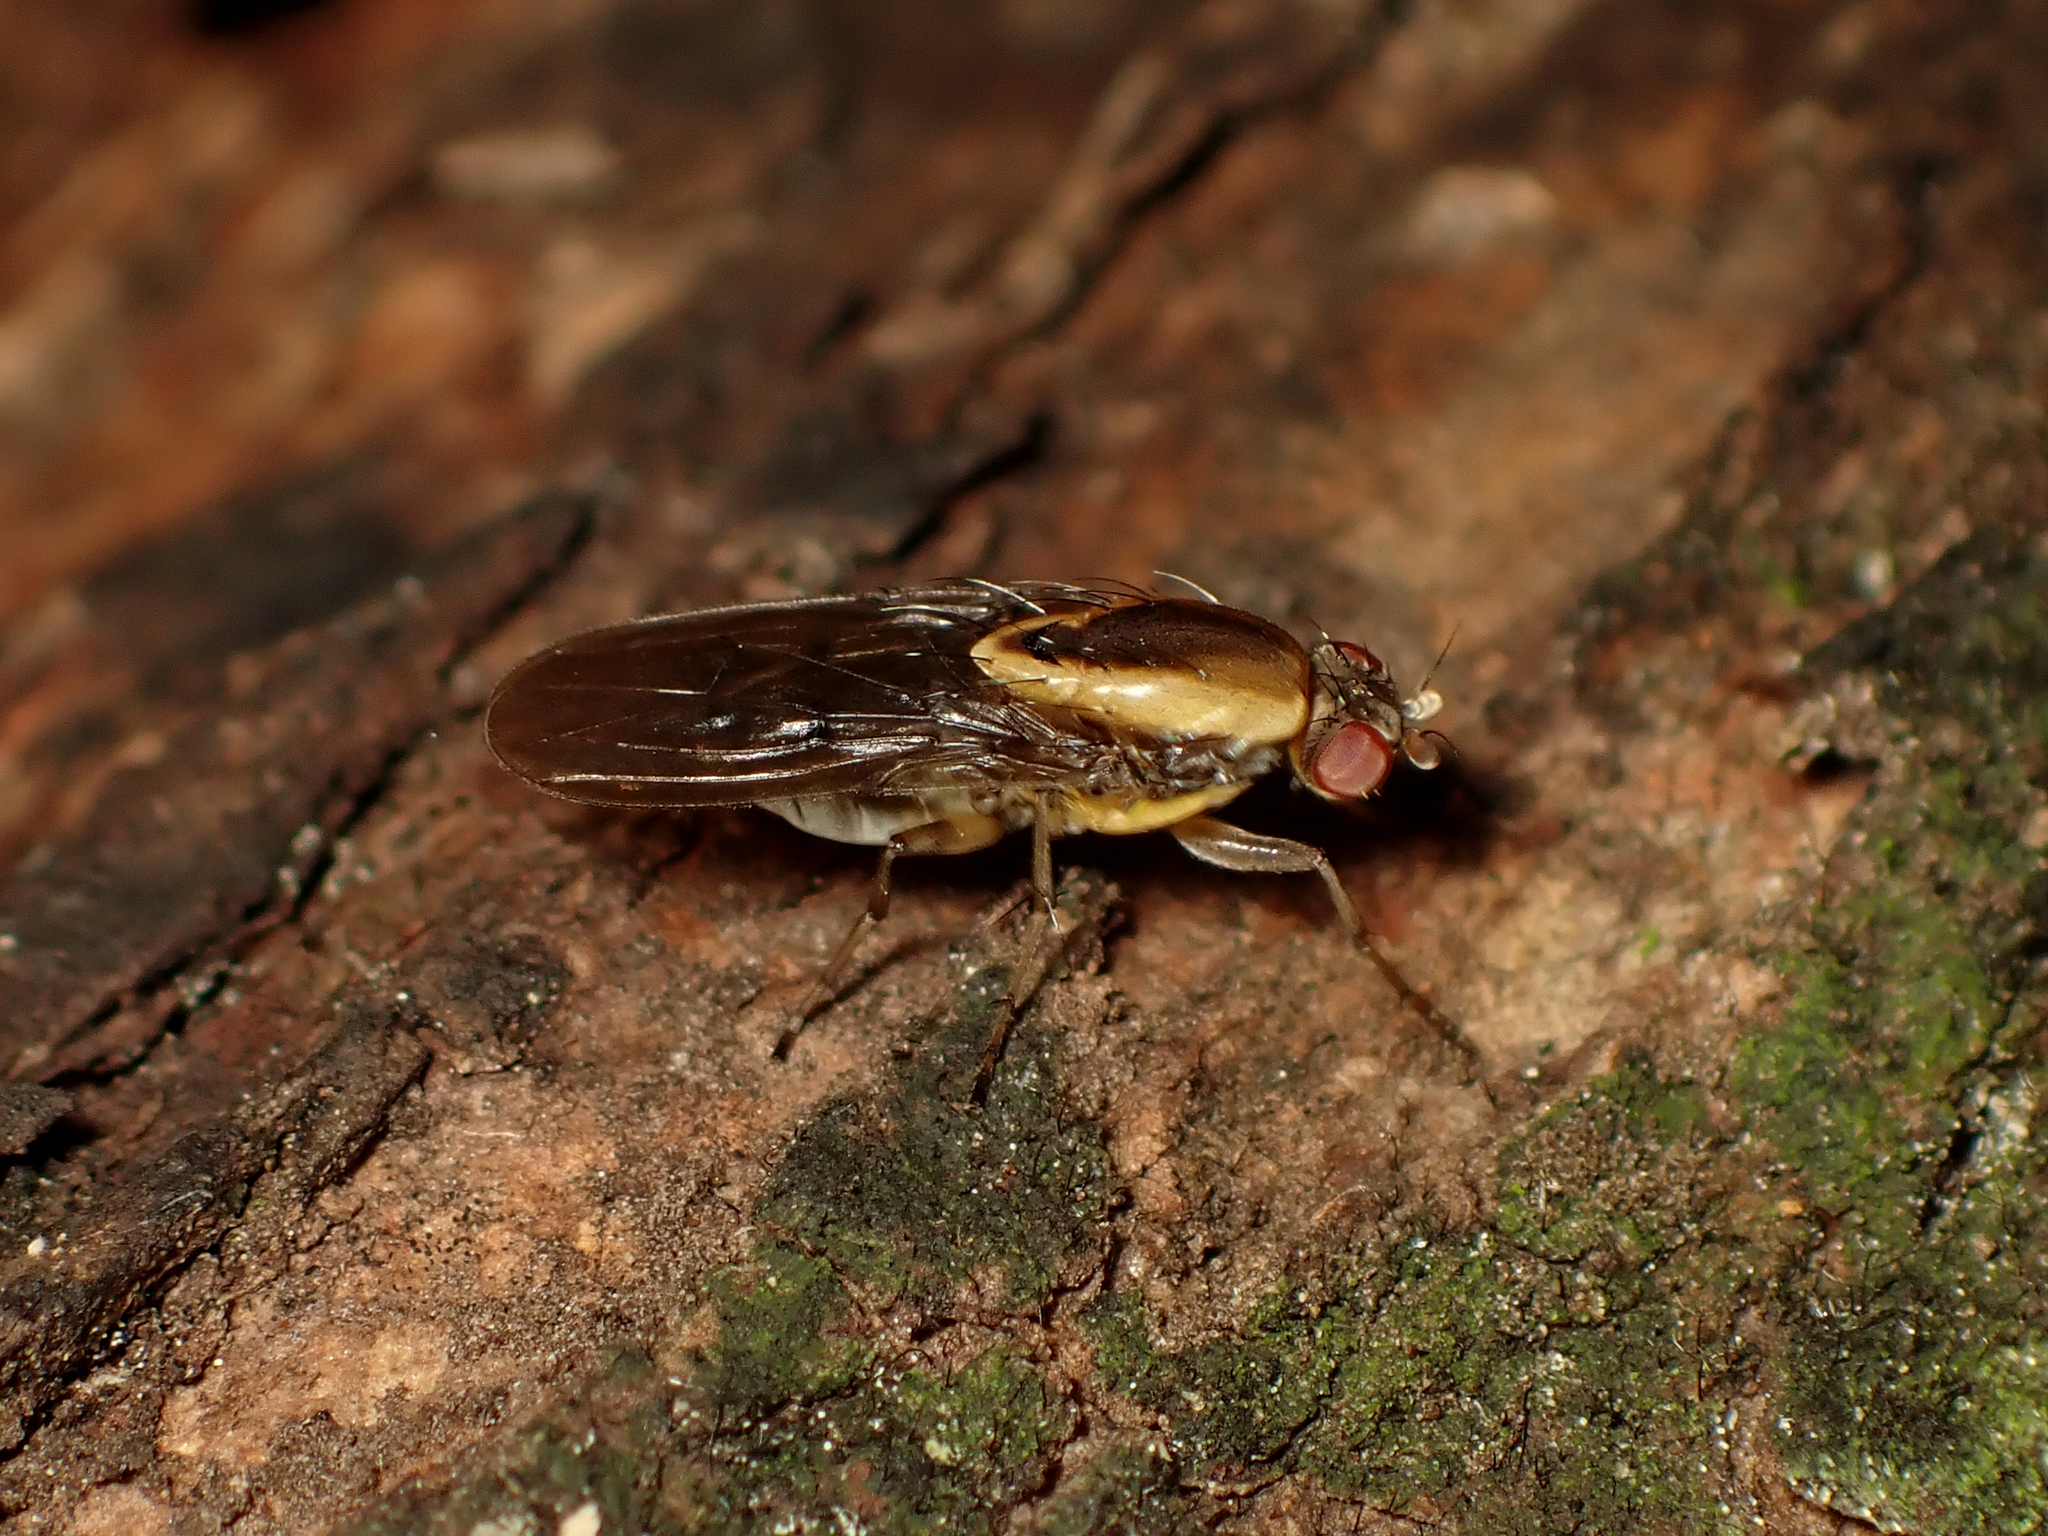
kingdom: Animalia
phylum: Arthropoda
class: Insecta
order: Diptera
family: Heleomyzidae
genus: Allophylopsis
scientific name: Allophylopsis scutellata
